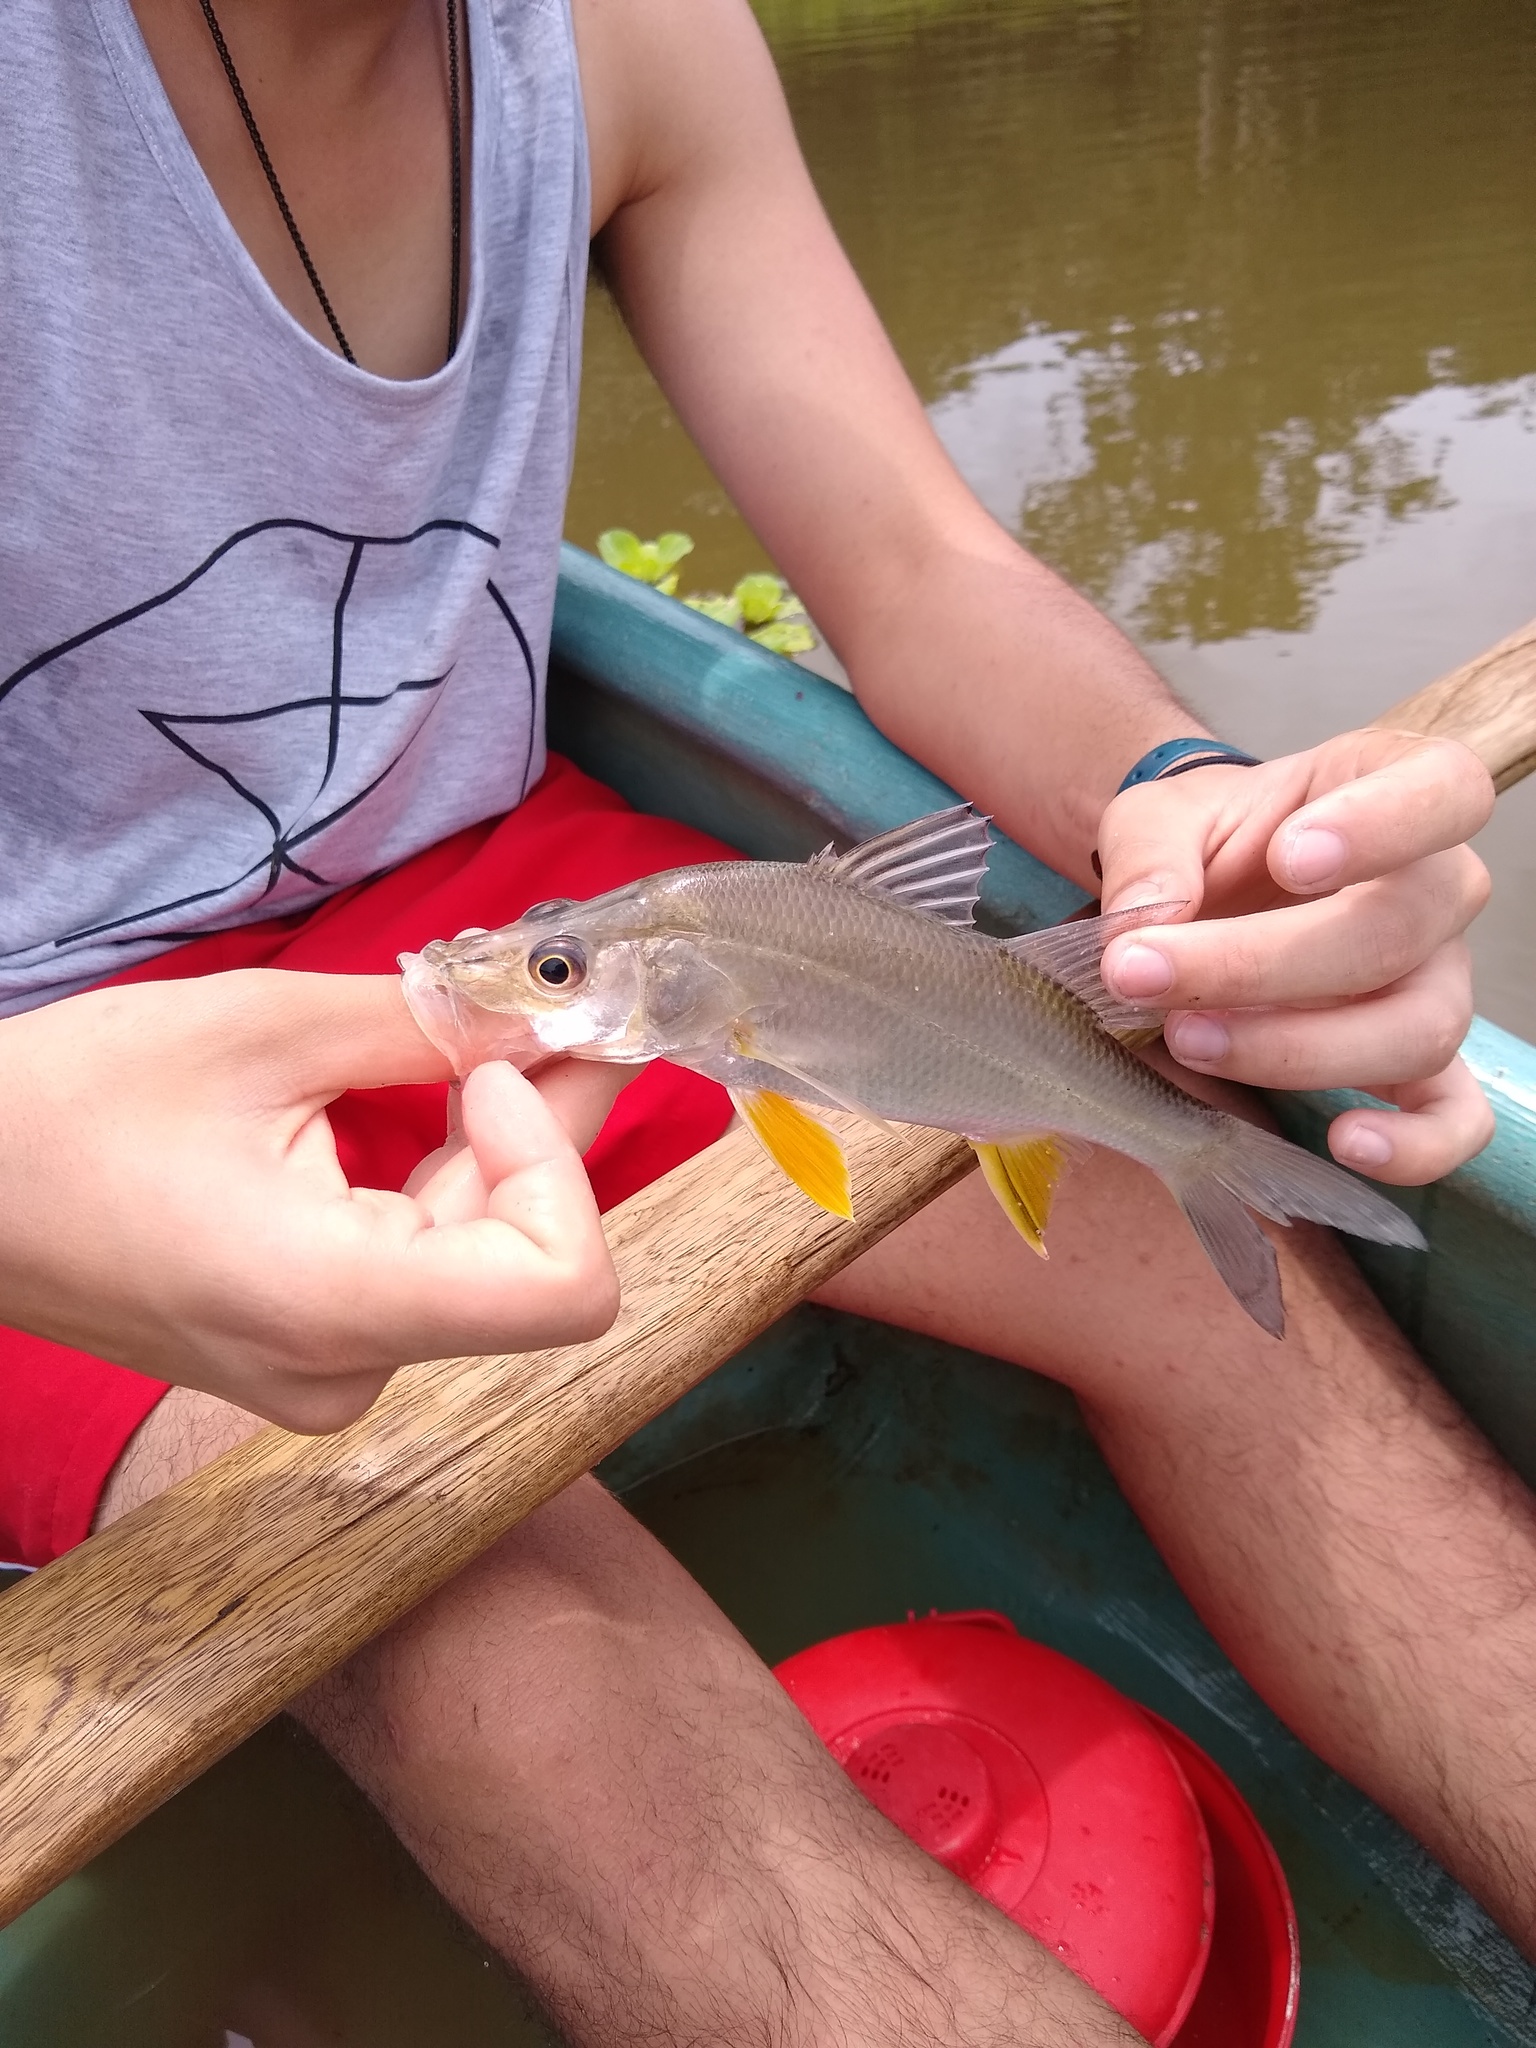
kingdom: Animalia
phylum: Chordata
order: Perciformes
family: Centropomidae
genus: Centropomus
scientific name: Centropomus robalito
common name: Little snook
